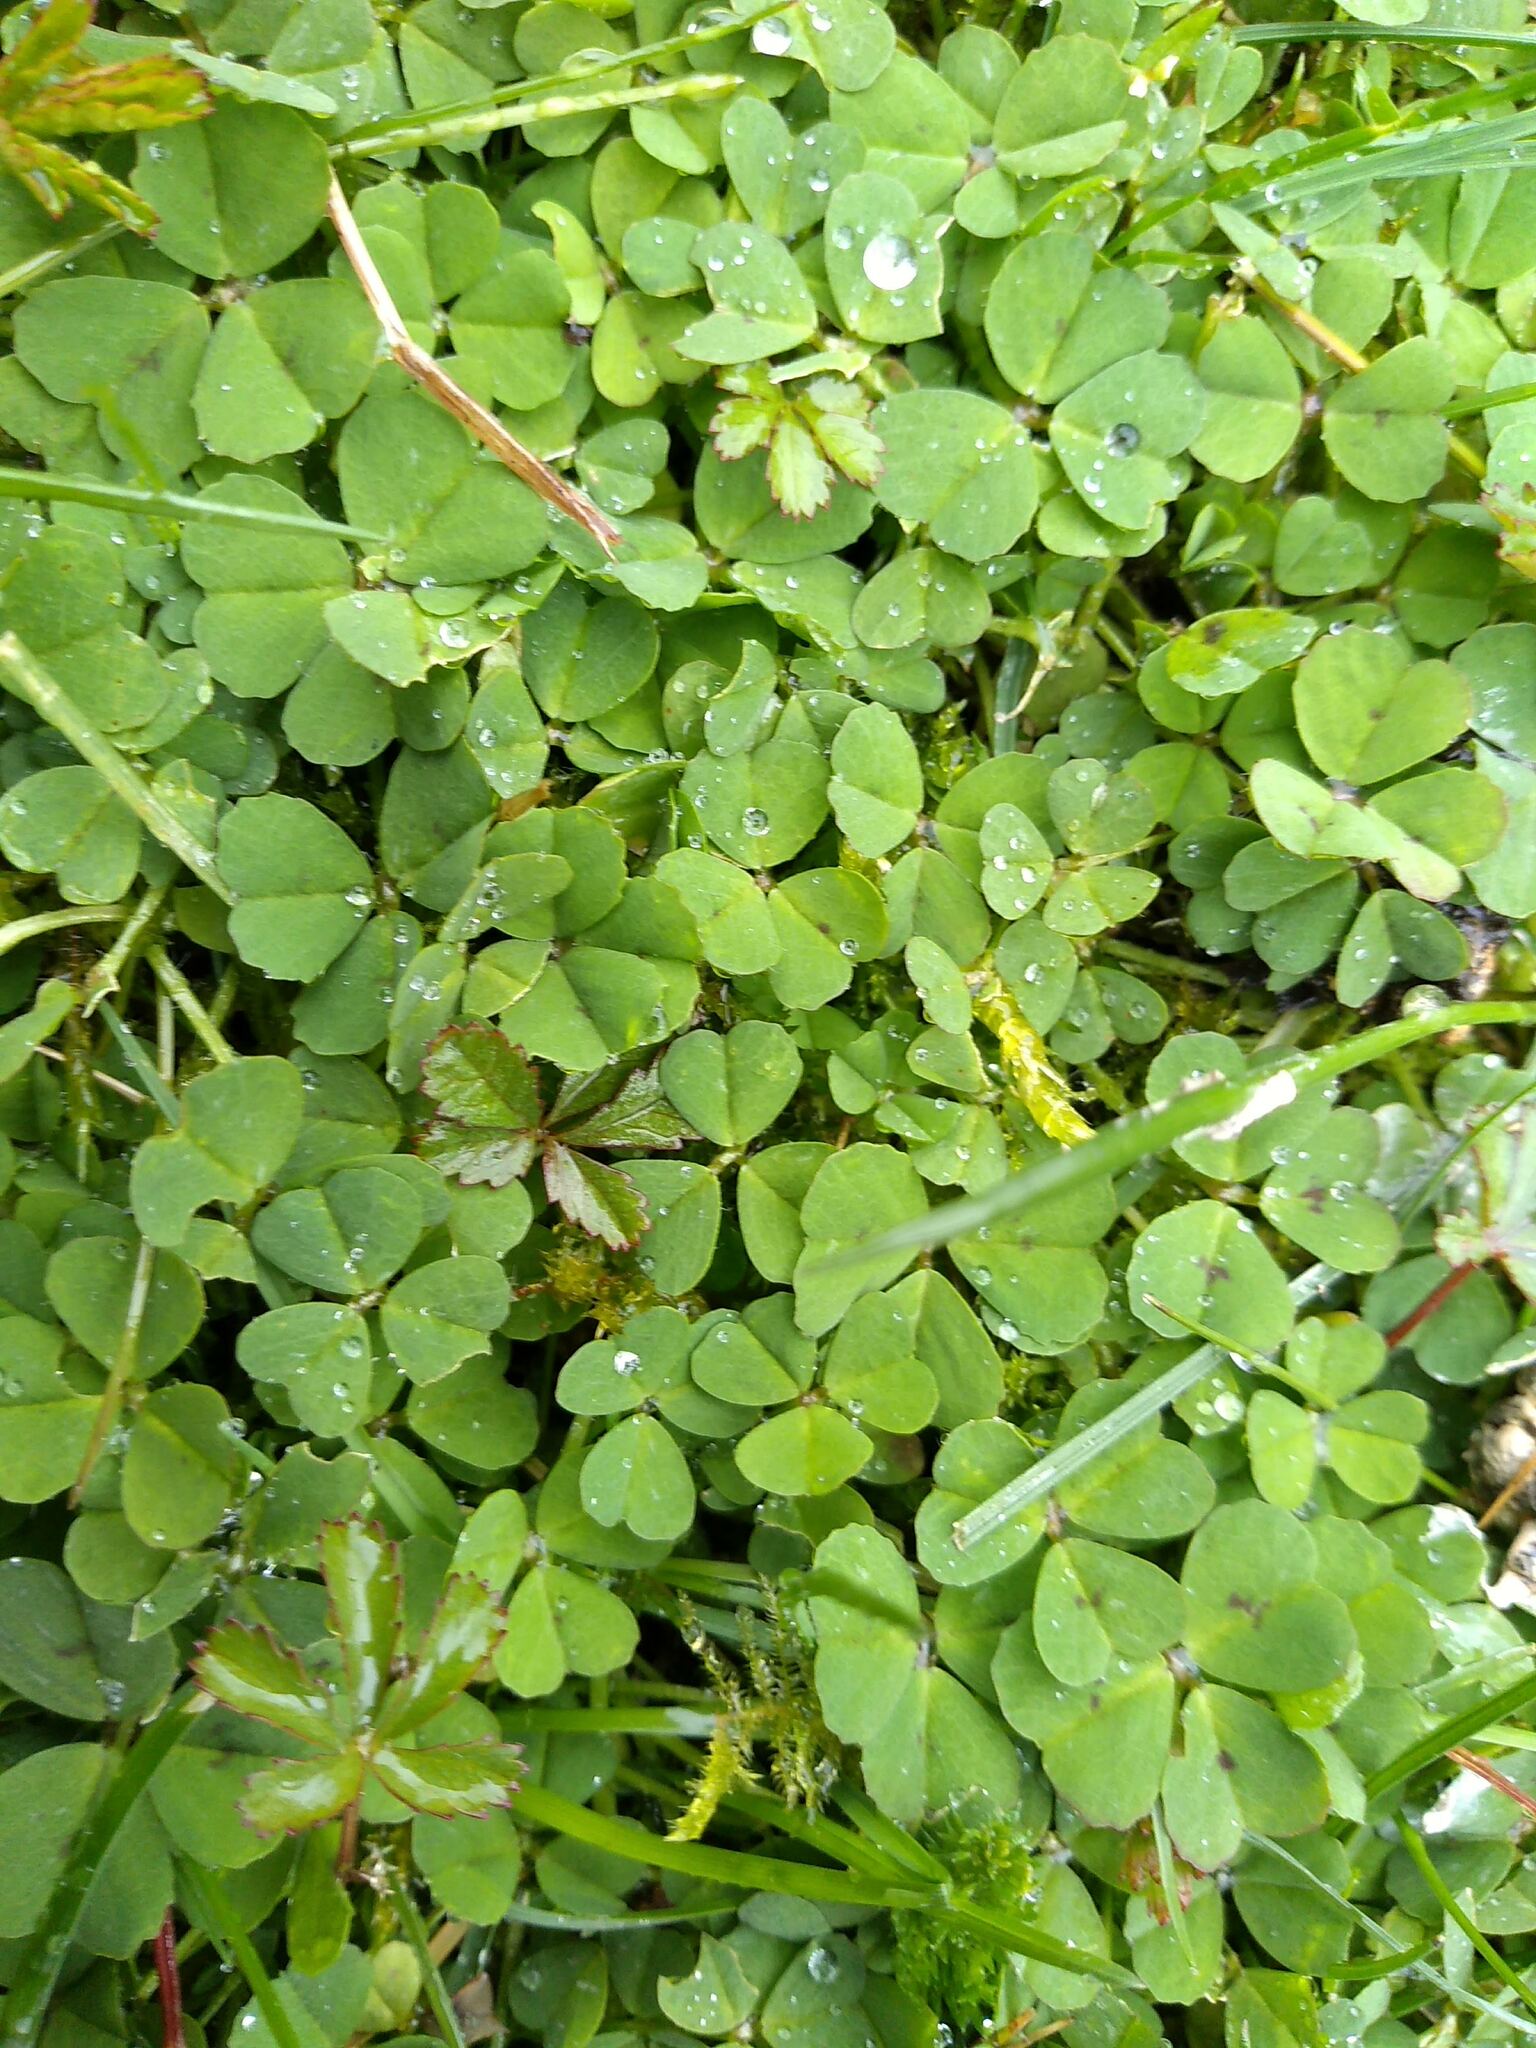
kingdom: Plantae
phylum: Tracheophyta
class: Magnoliopsida
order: Fabales
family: Fabaceae
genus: Medicago
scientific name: Medicago arabica
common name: Spotted medick
